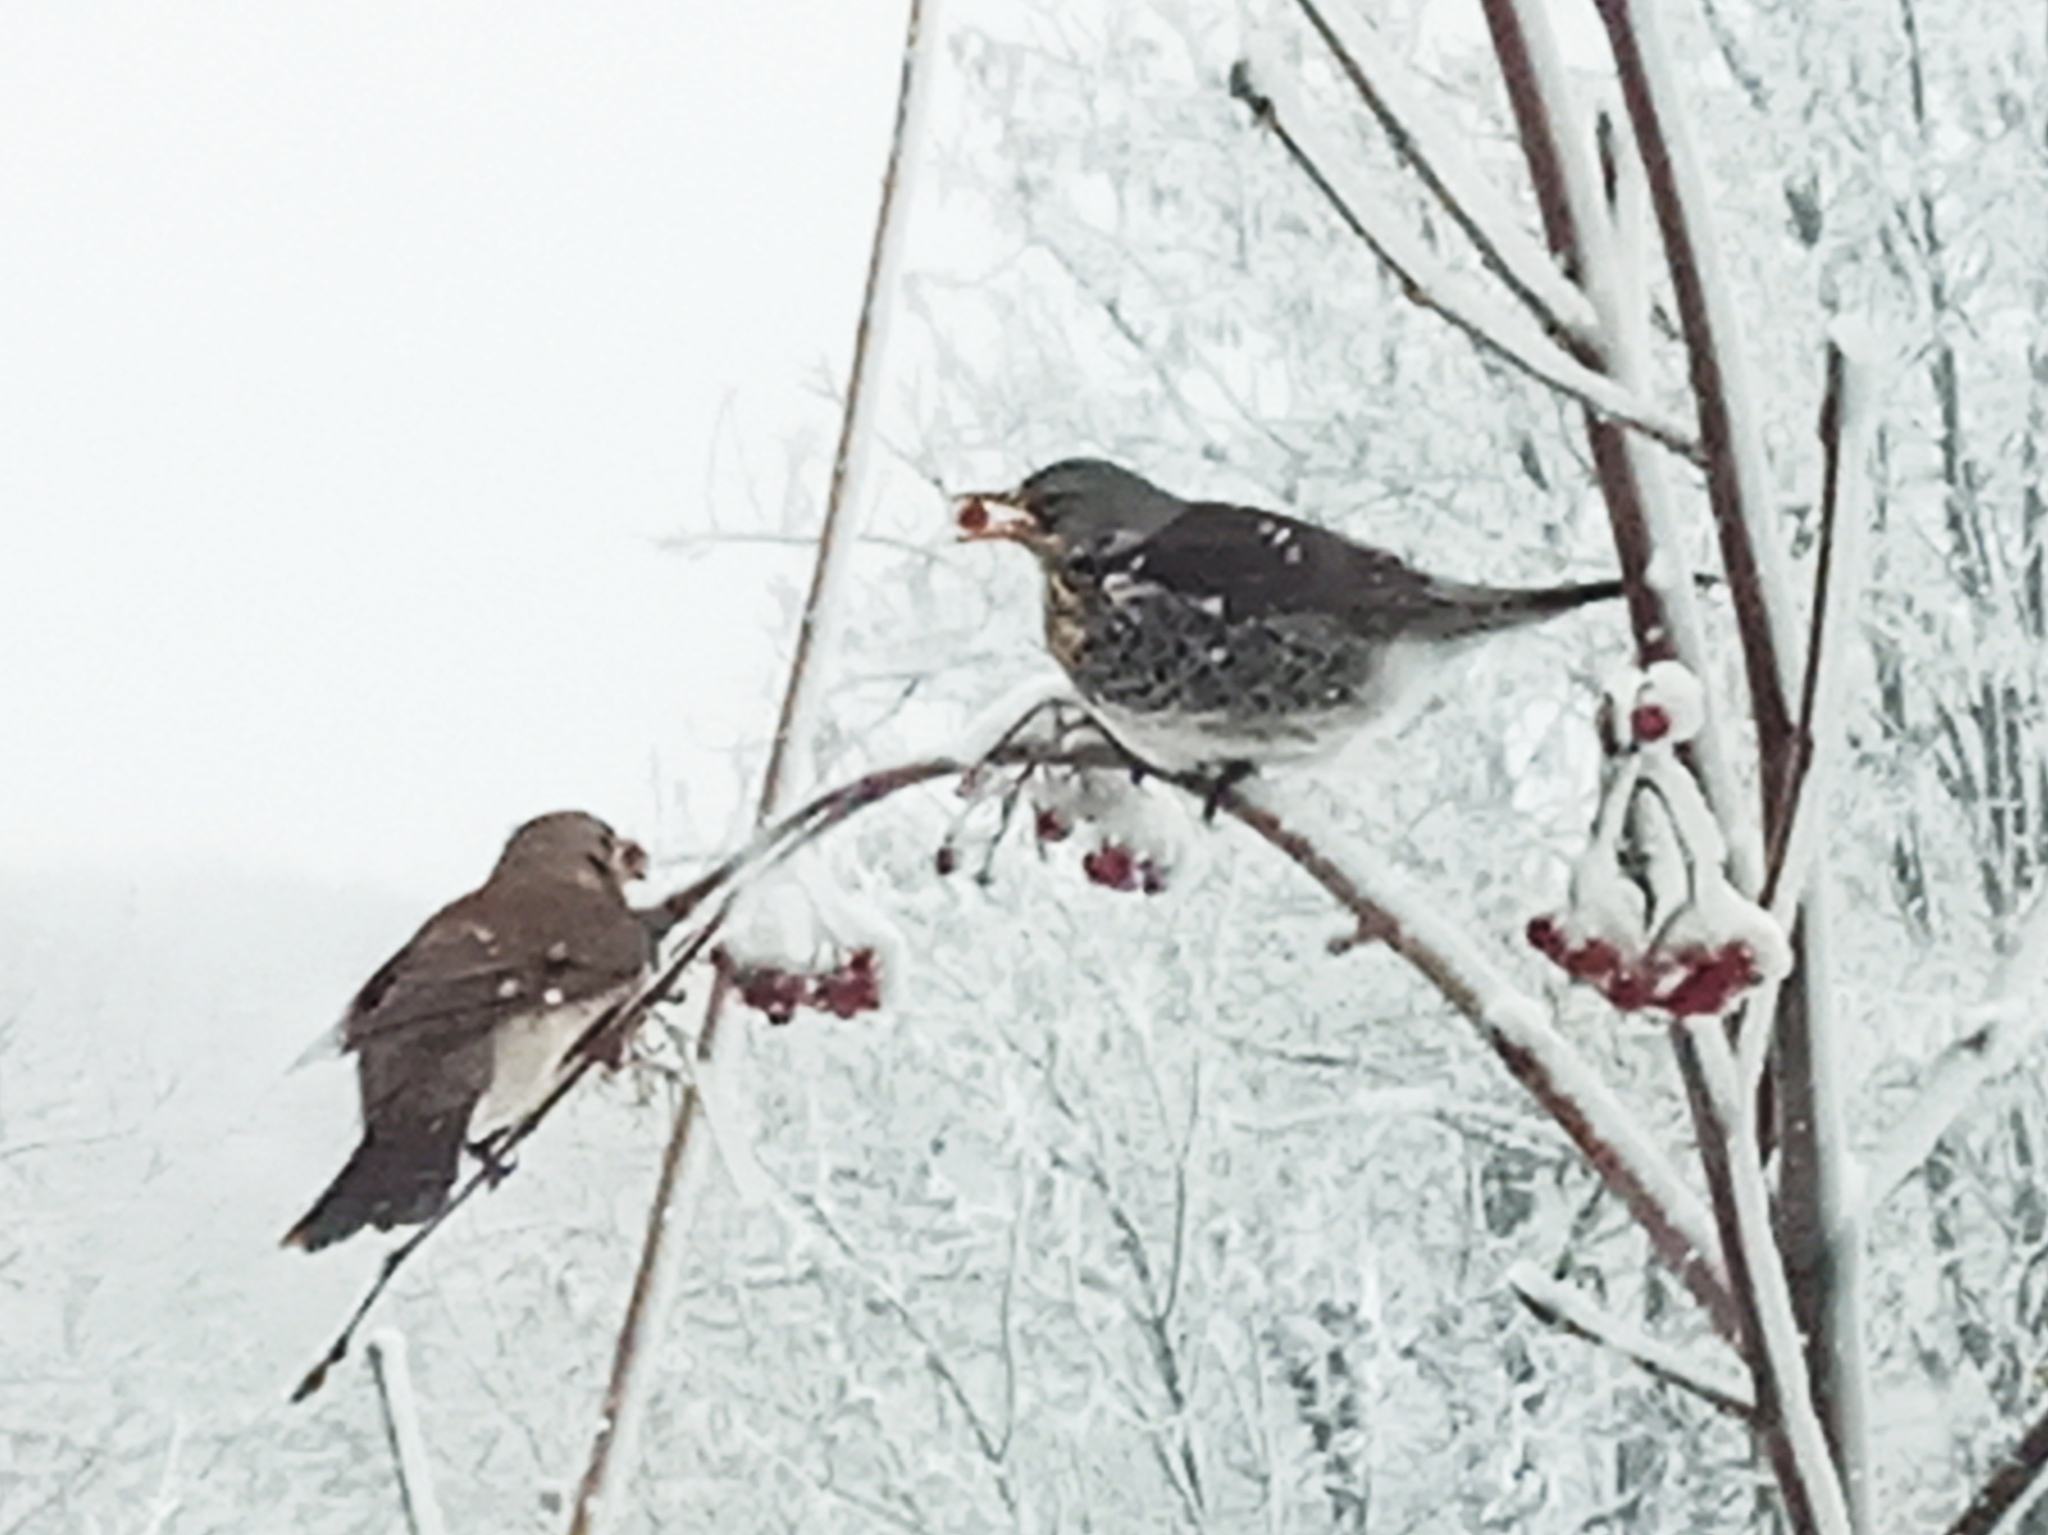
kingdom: Animalia
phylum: Chordata
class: Aves
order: Passeriformes
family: Turdidae
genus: Turdus
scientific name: Turdus pilaris
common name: Fieldfare
